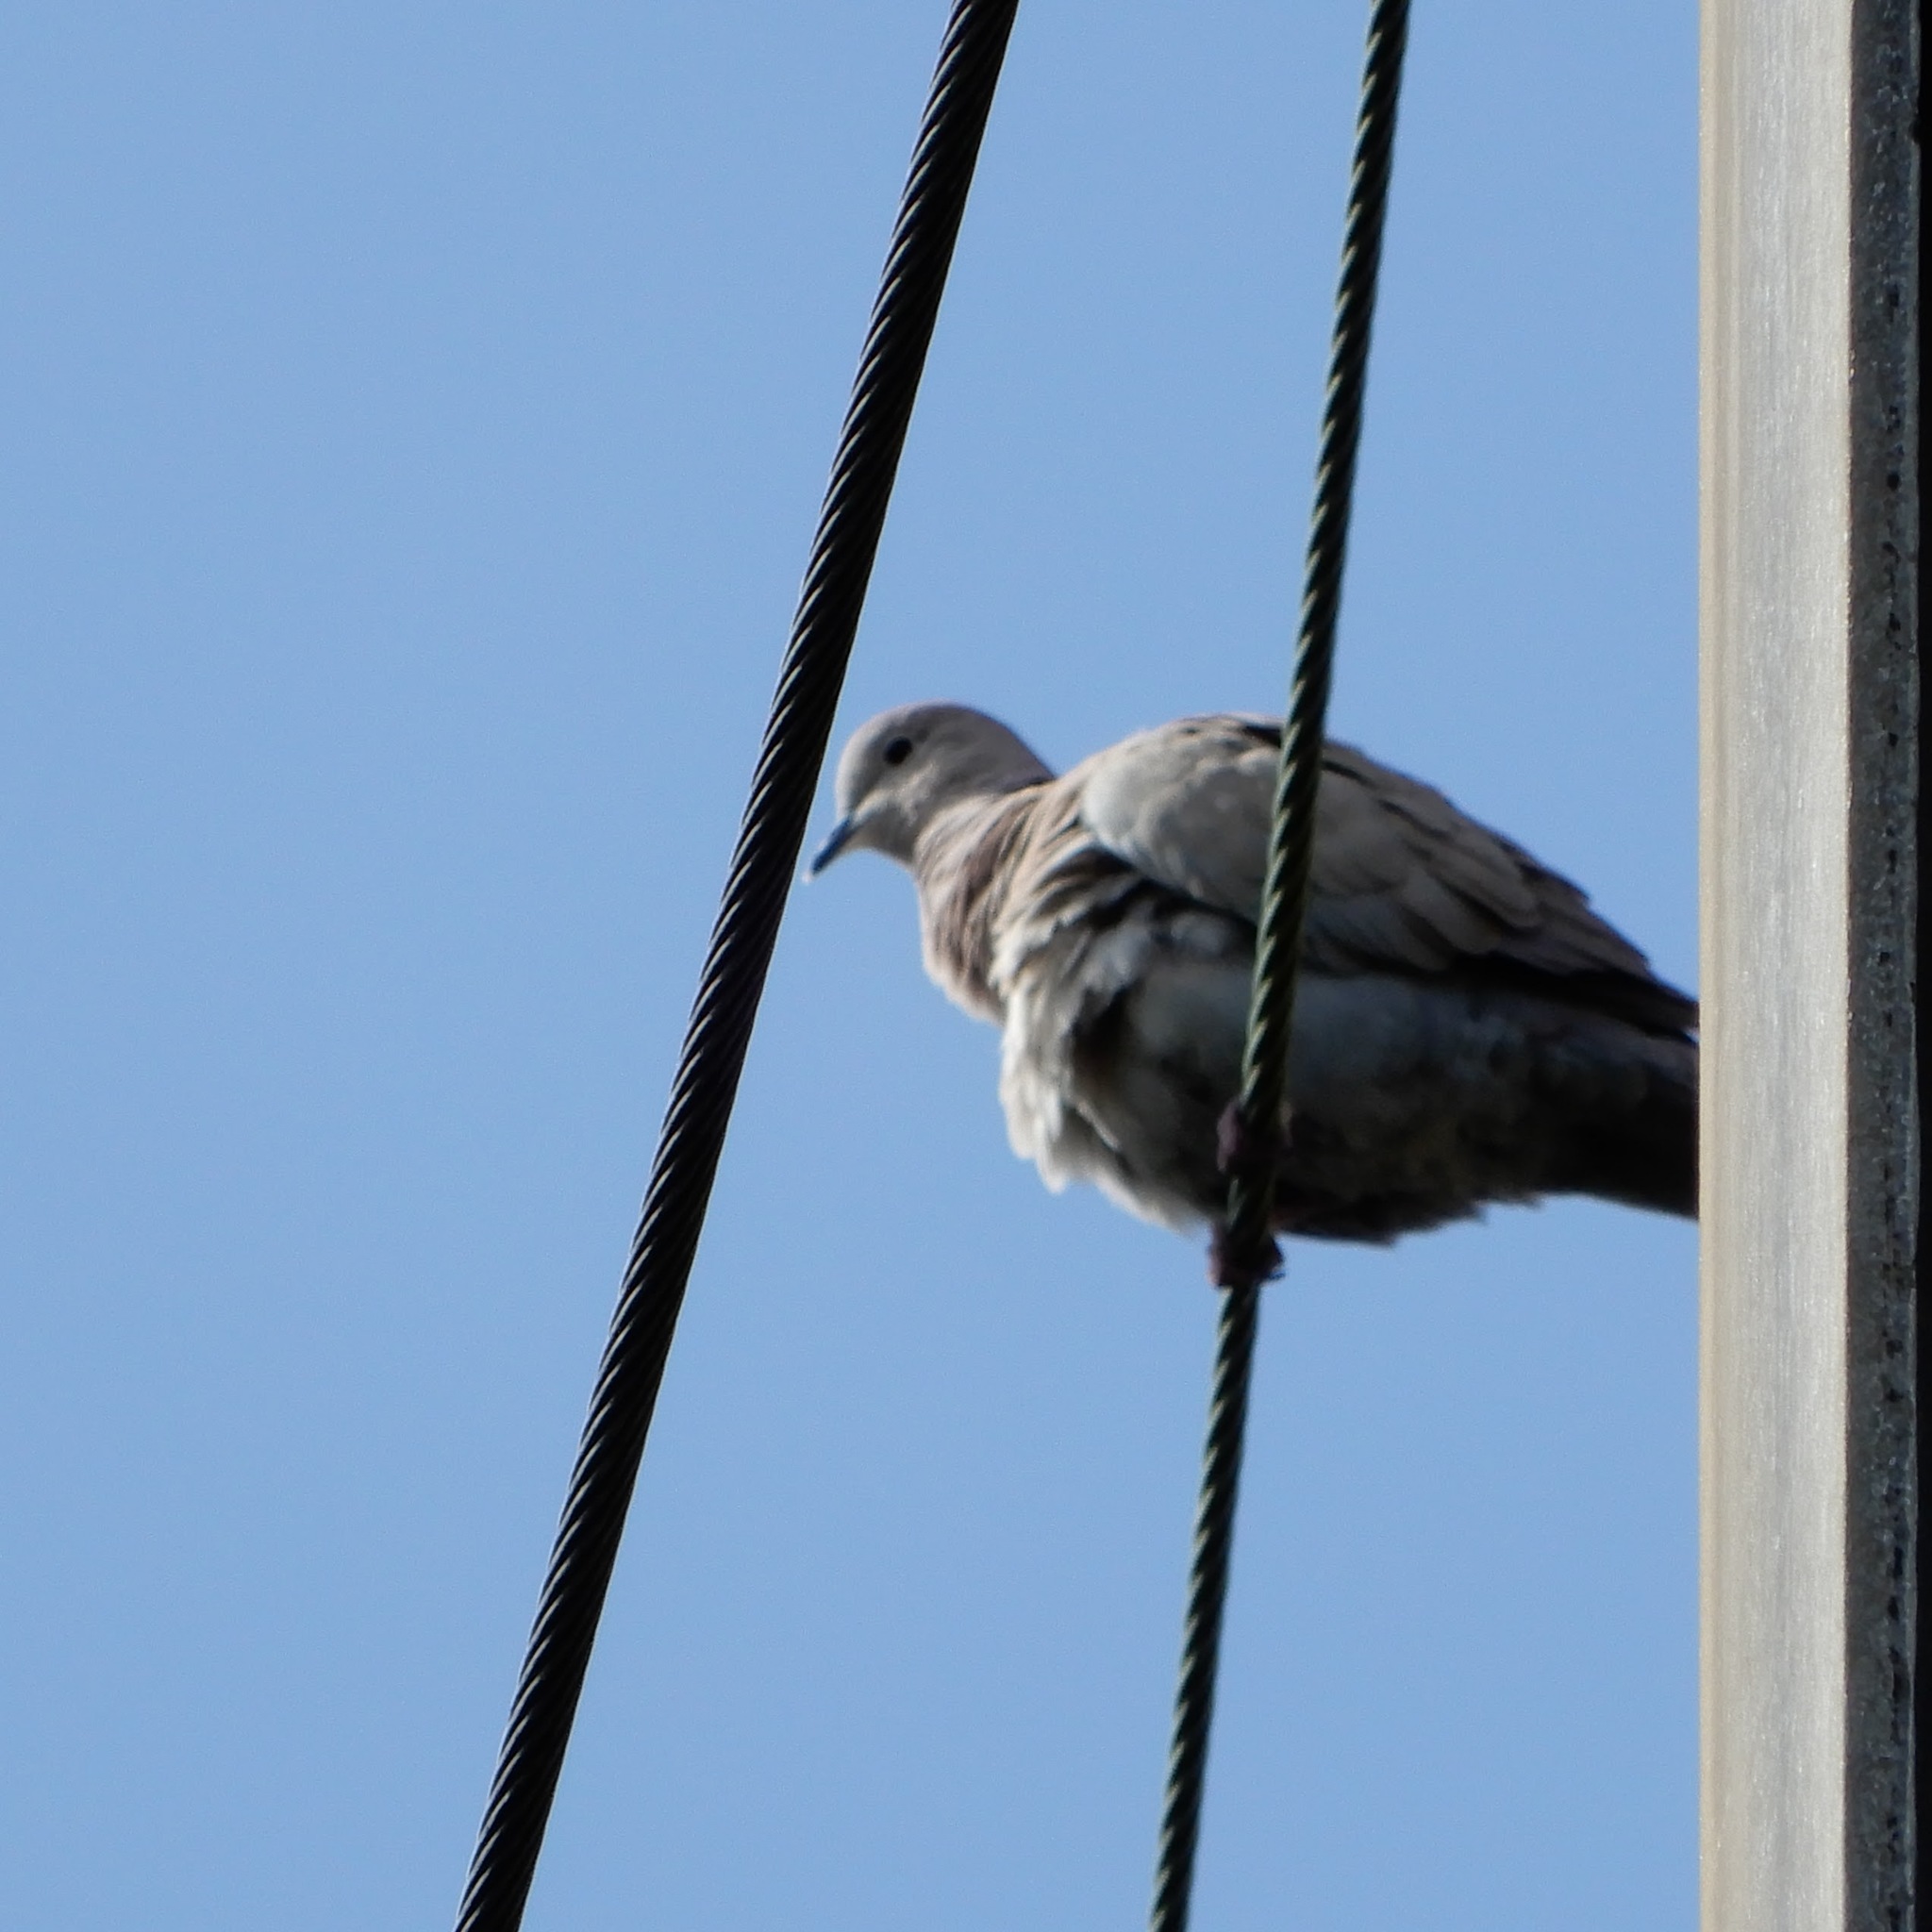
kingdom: Animalia
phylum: Chordata
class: Aves
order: Columbiformes
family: Columbidae
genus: Streptopelia
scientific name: Streptopelia decaocto
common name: Eurasian collared dove
